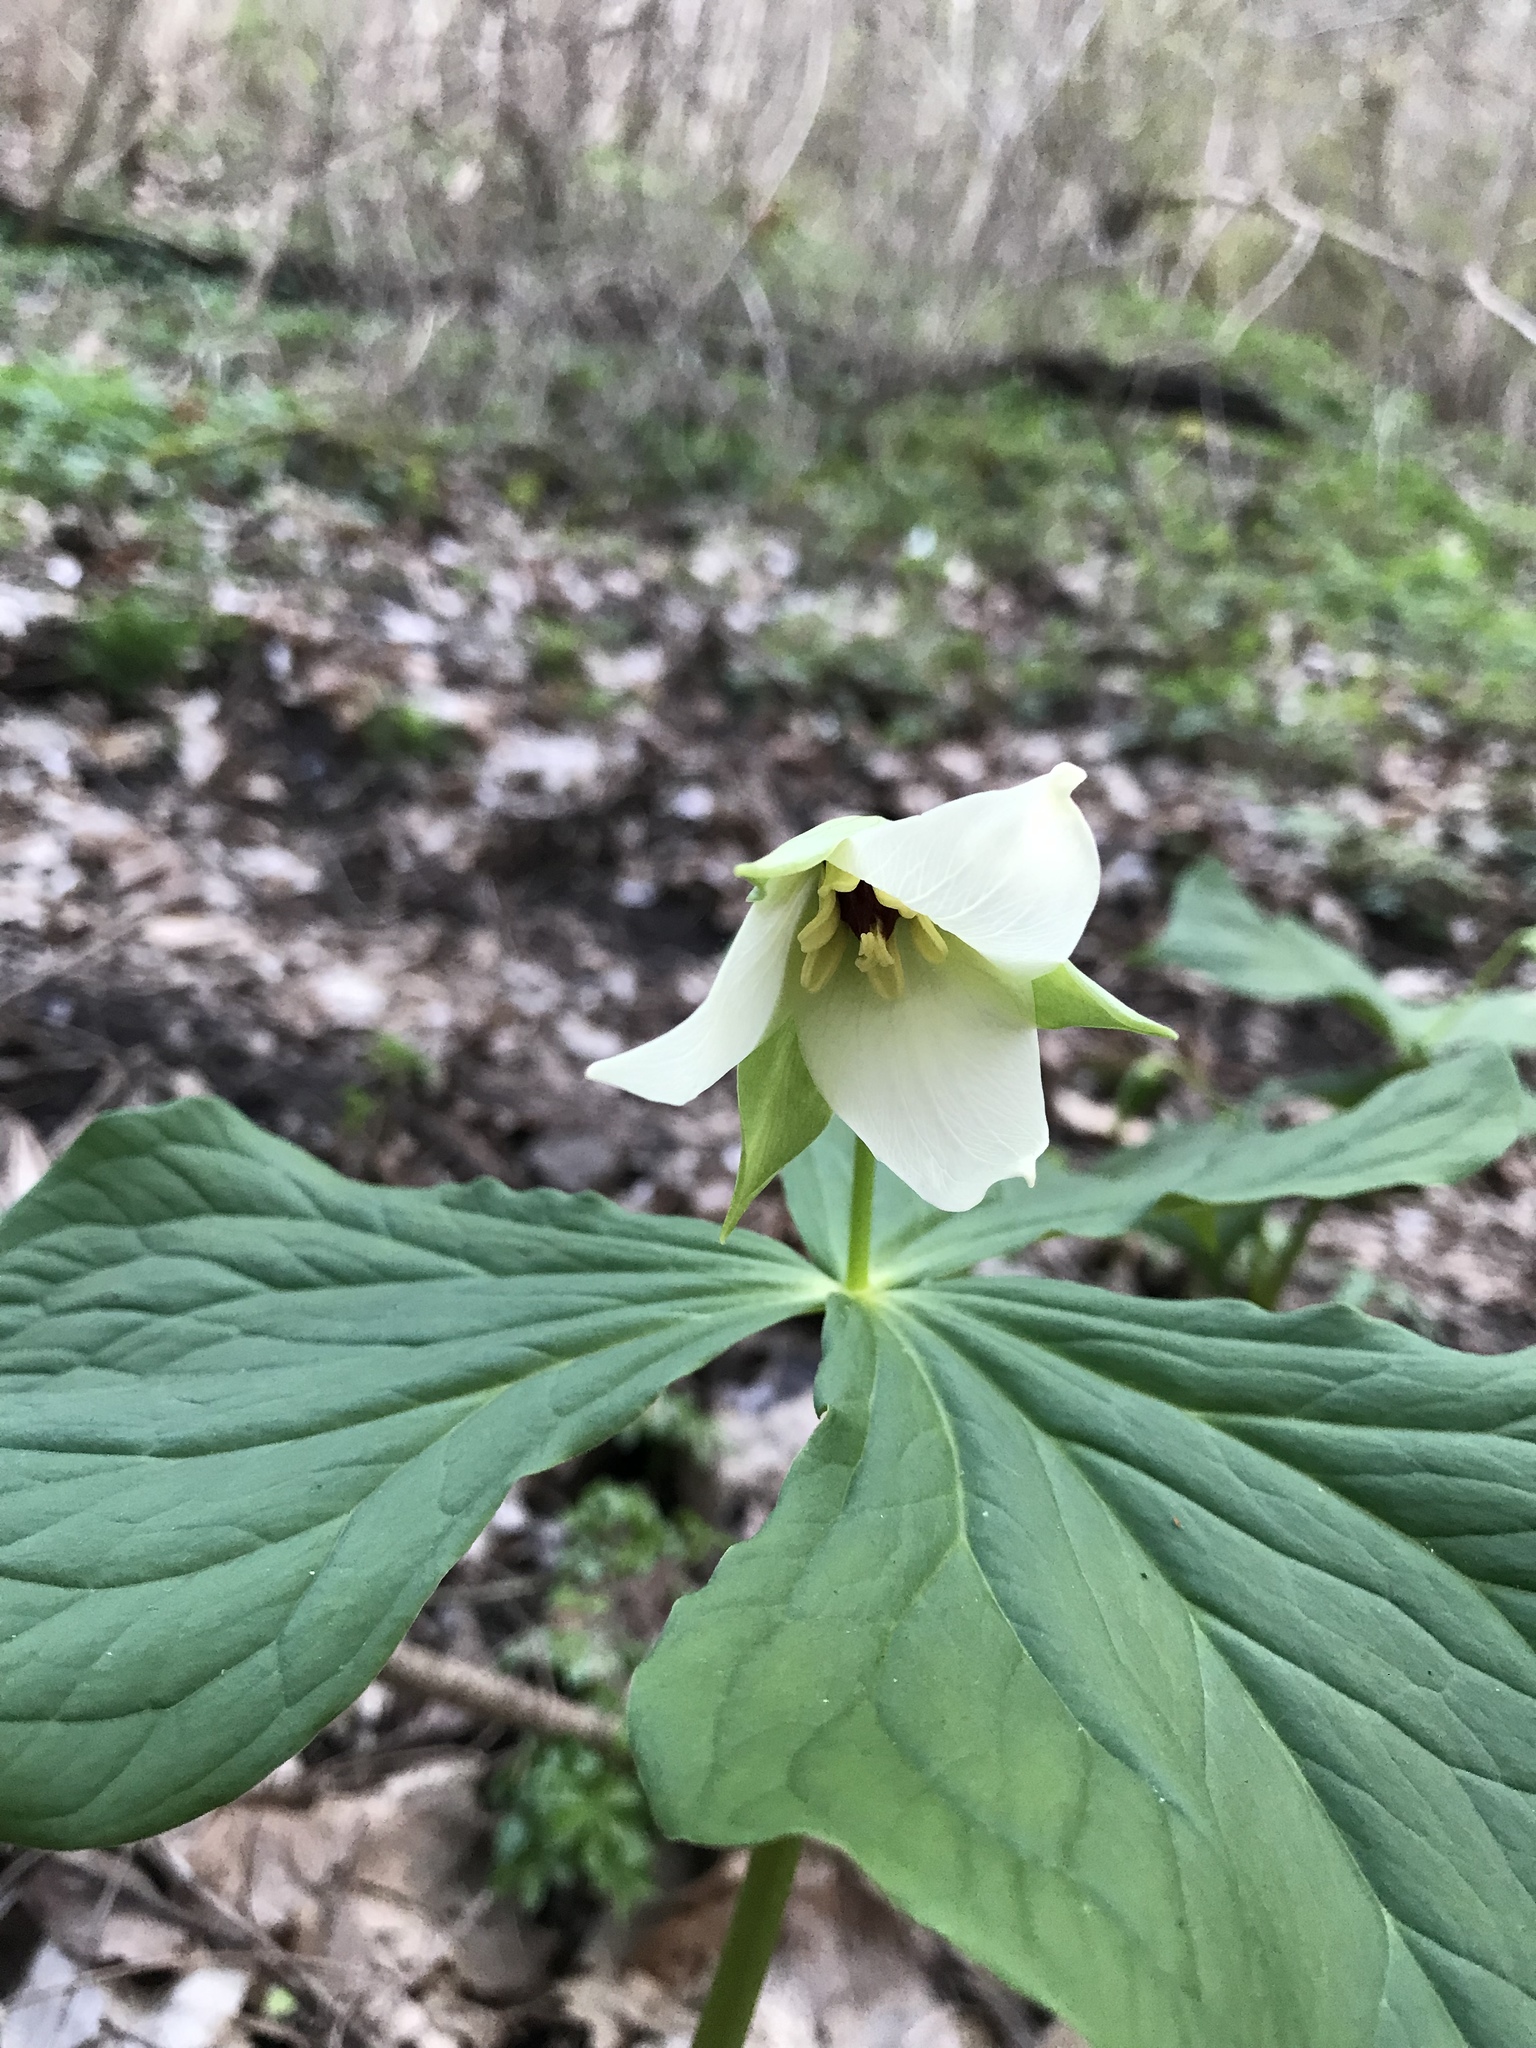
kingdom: Plantae
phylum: Tracheophyta
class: Liliopsida
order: Liliales
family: Melanthiaceae
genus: Trillium
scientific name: Trillium erectum
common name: Purple trillium
